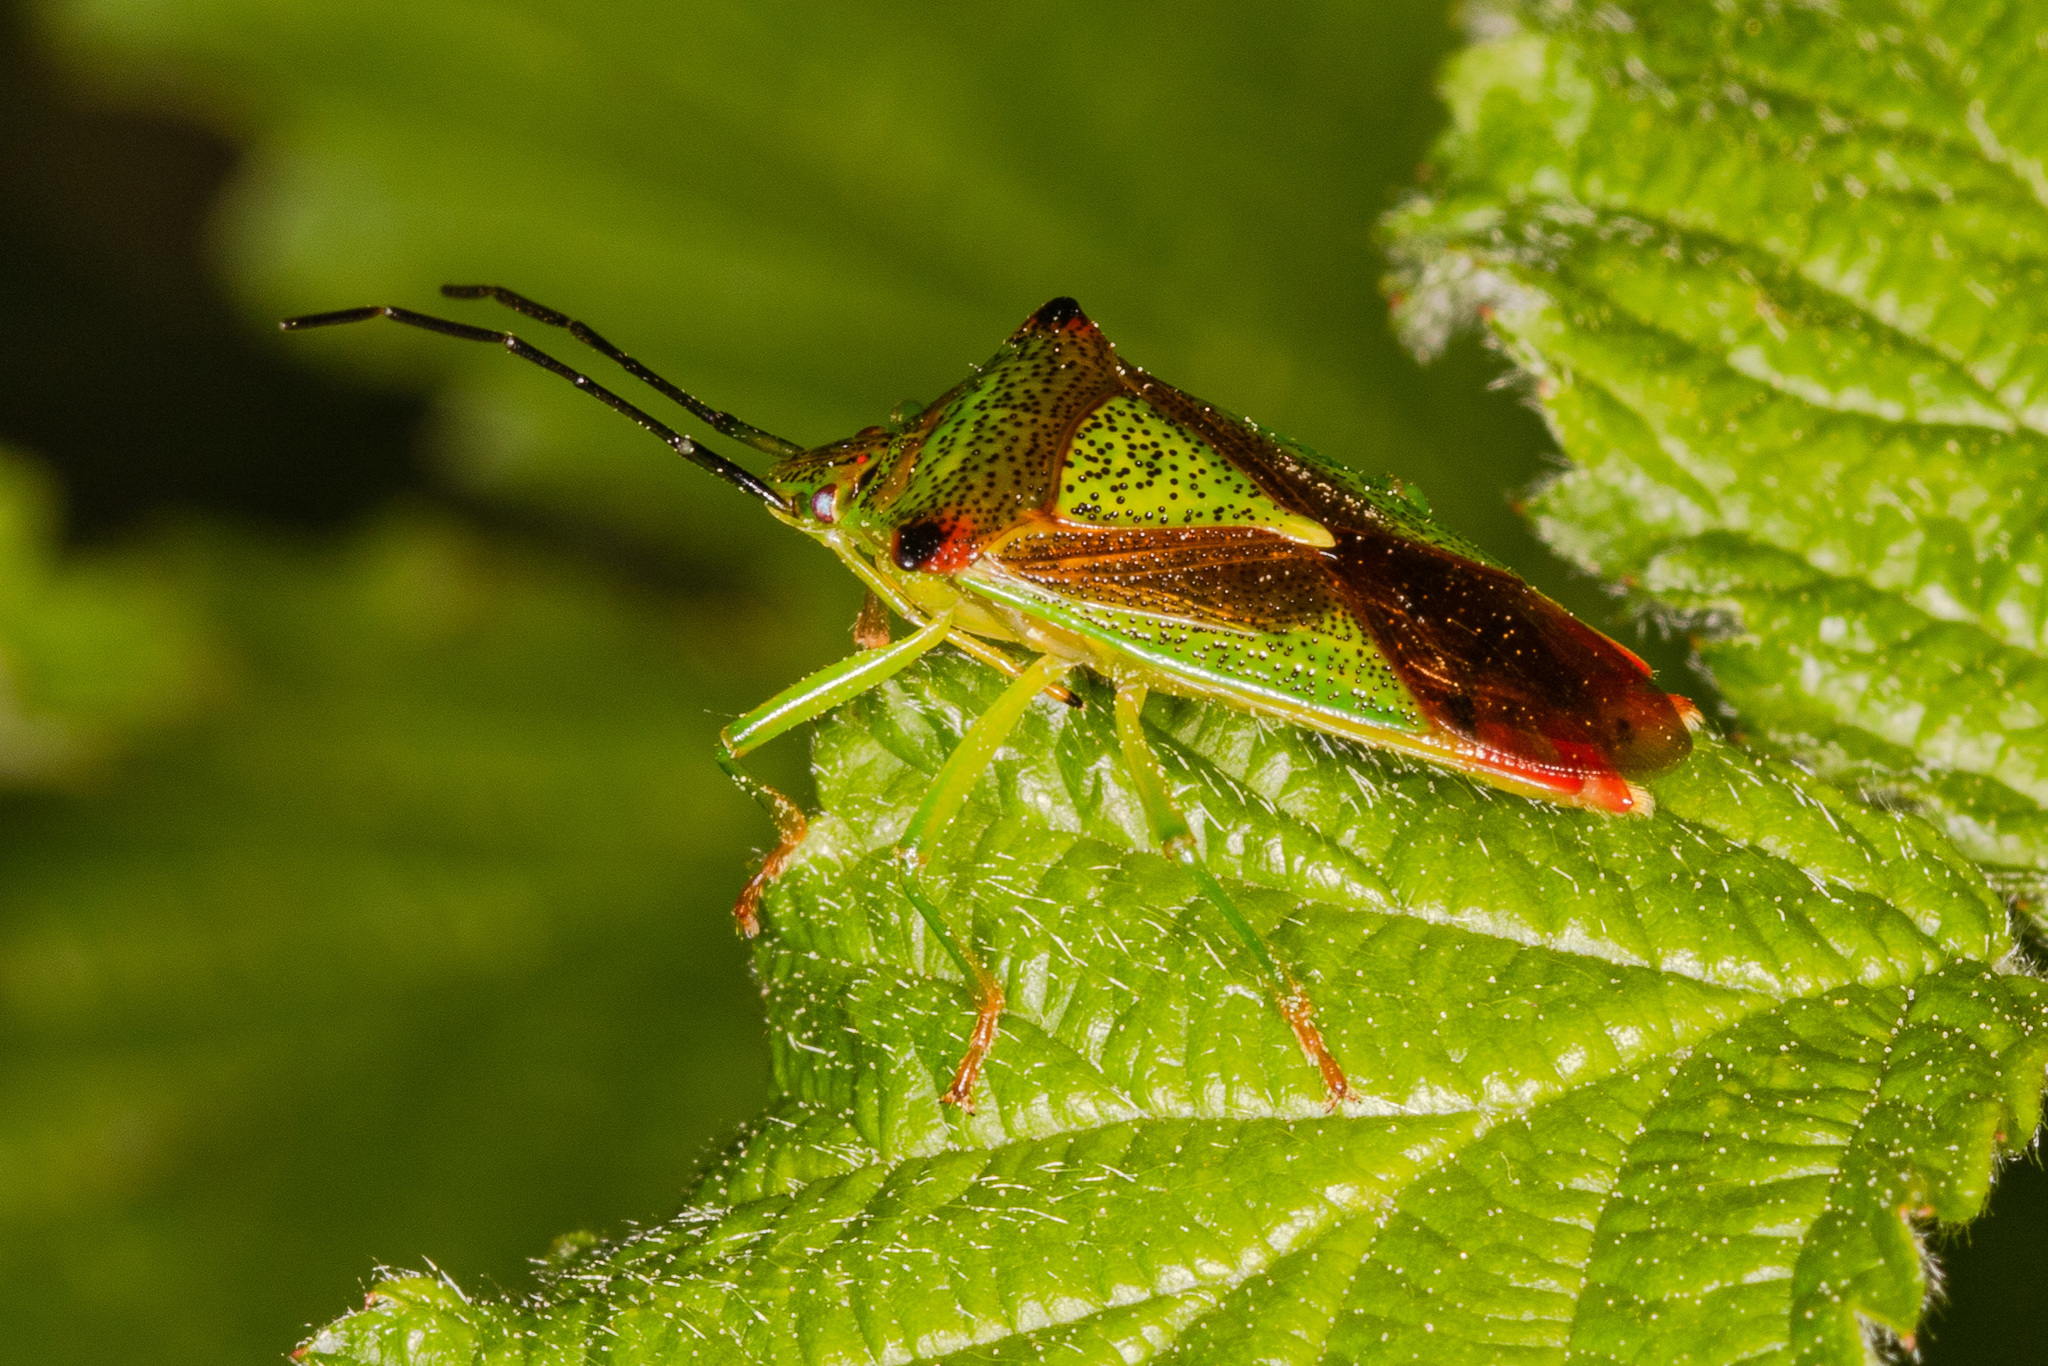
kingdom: Animalia
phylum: Arthropoda
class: Insecta
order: Hemiptera
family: Acanthosomatidae
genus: Acanthosoma
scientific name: Acanthosoma haemorrhoidale
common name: Hawthorn shieldbug
